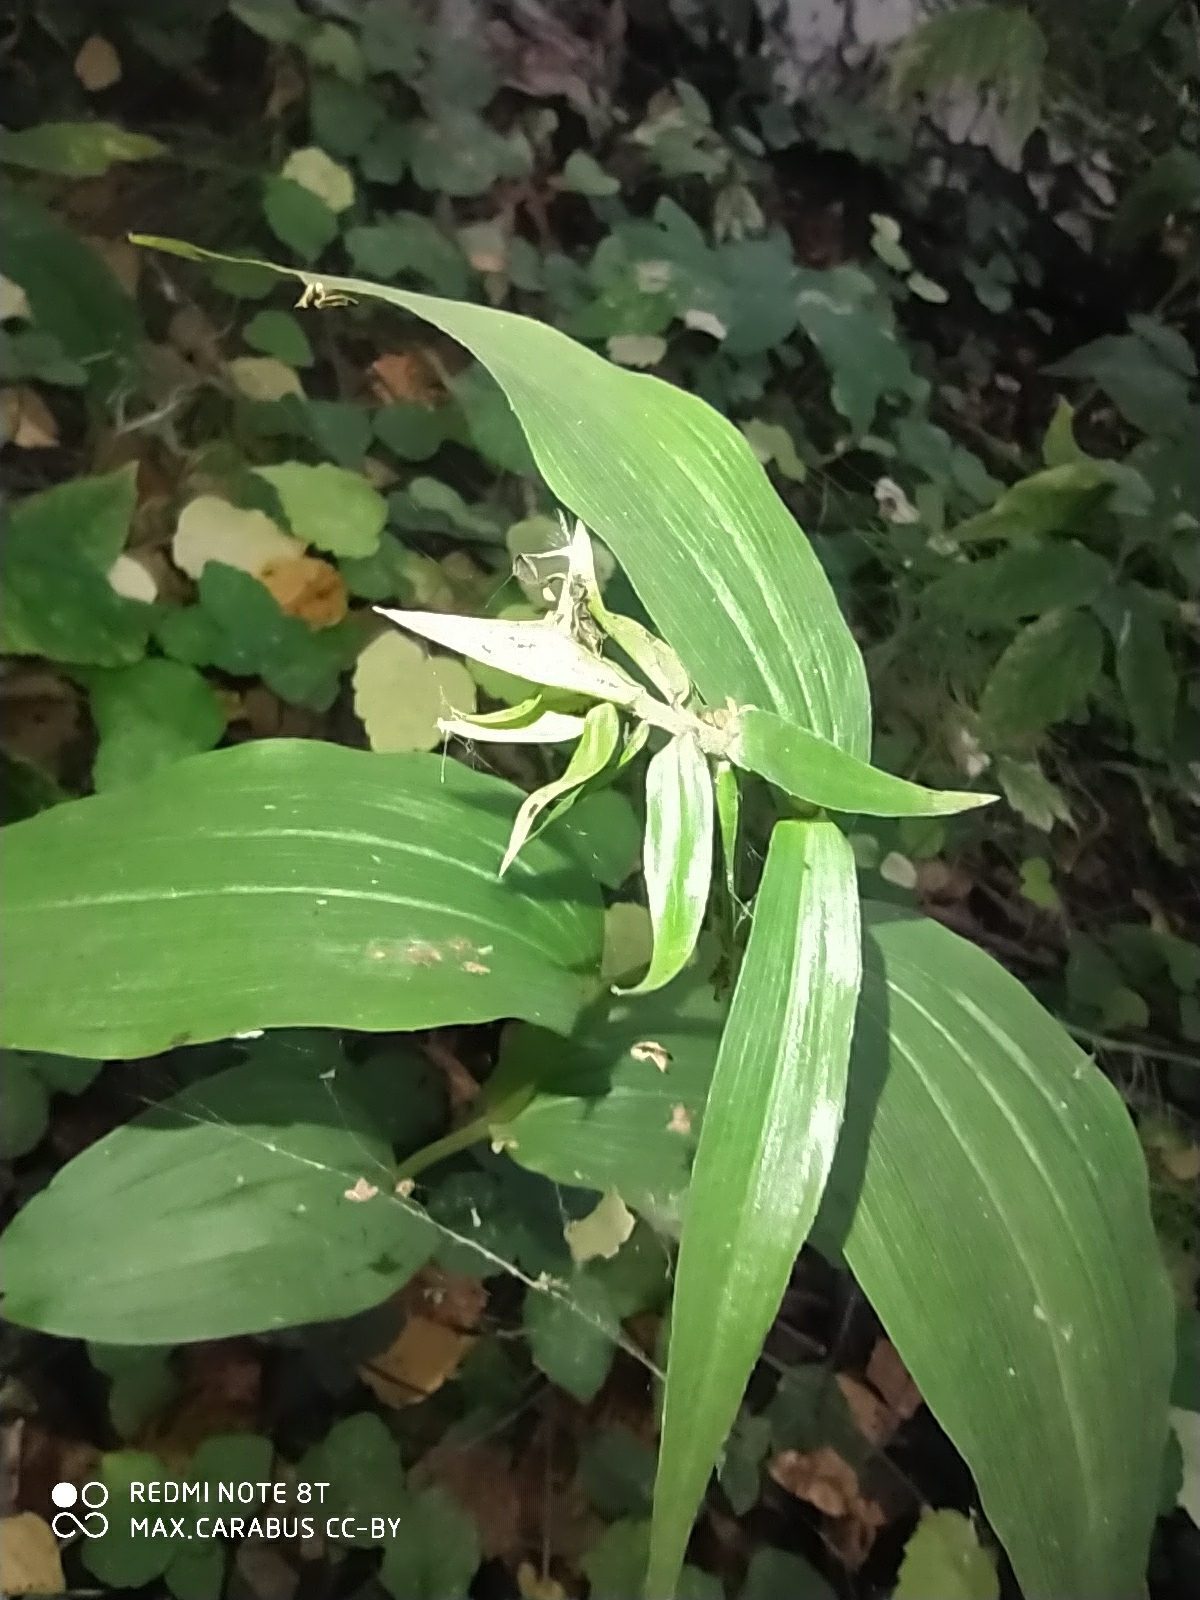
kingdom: Plantae
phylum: Tracheophyta
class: Liliopsida
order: Asparagales
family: Orchidaceae
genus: Epipactis
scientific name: Epipactis helleborine
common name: Broad-leaved helleborine
